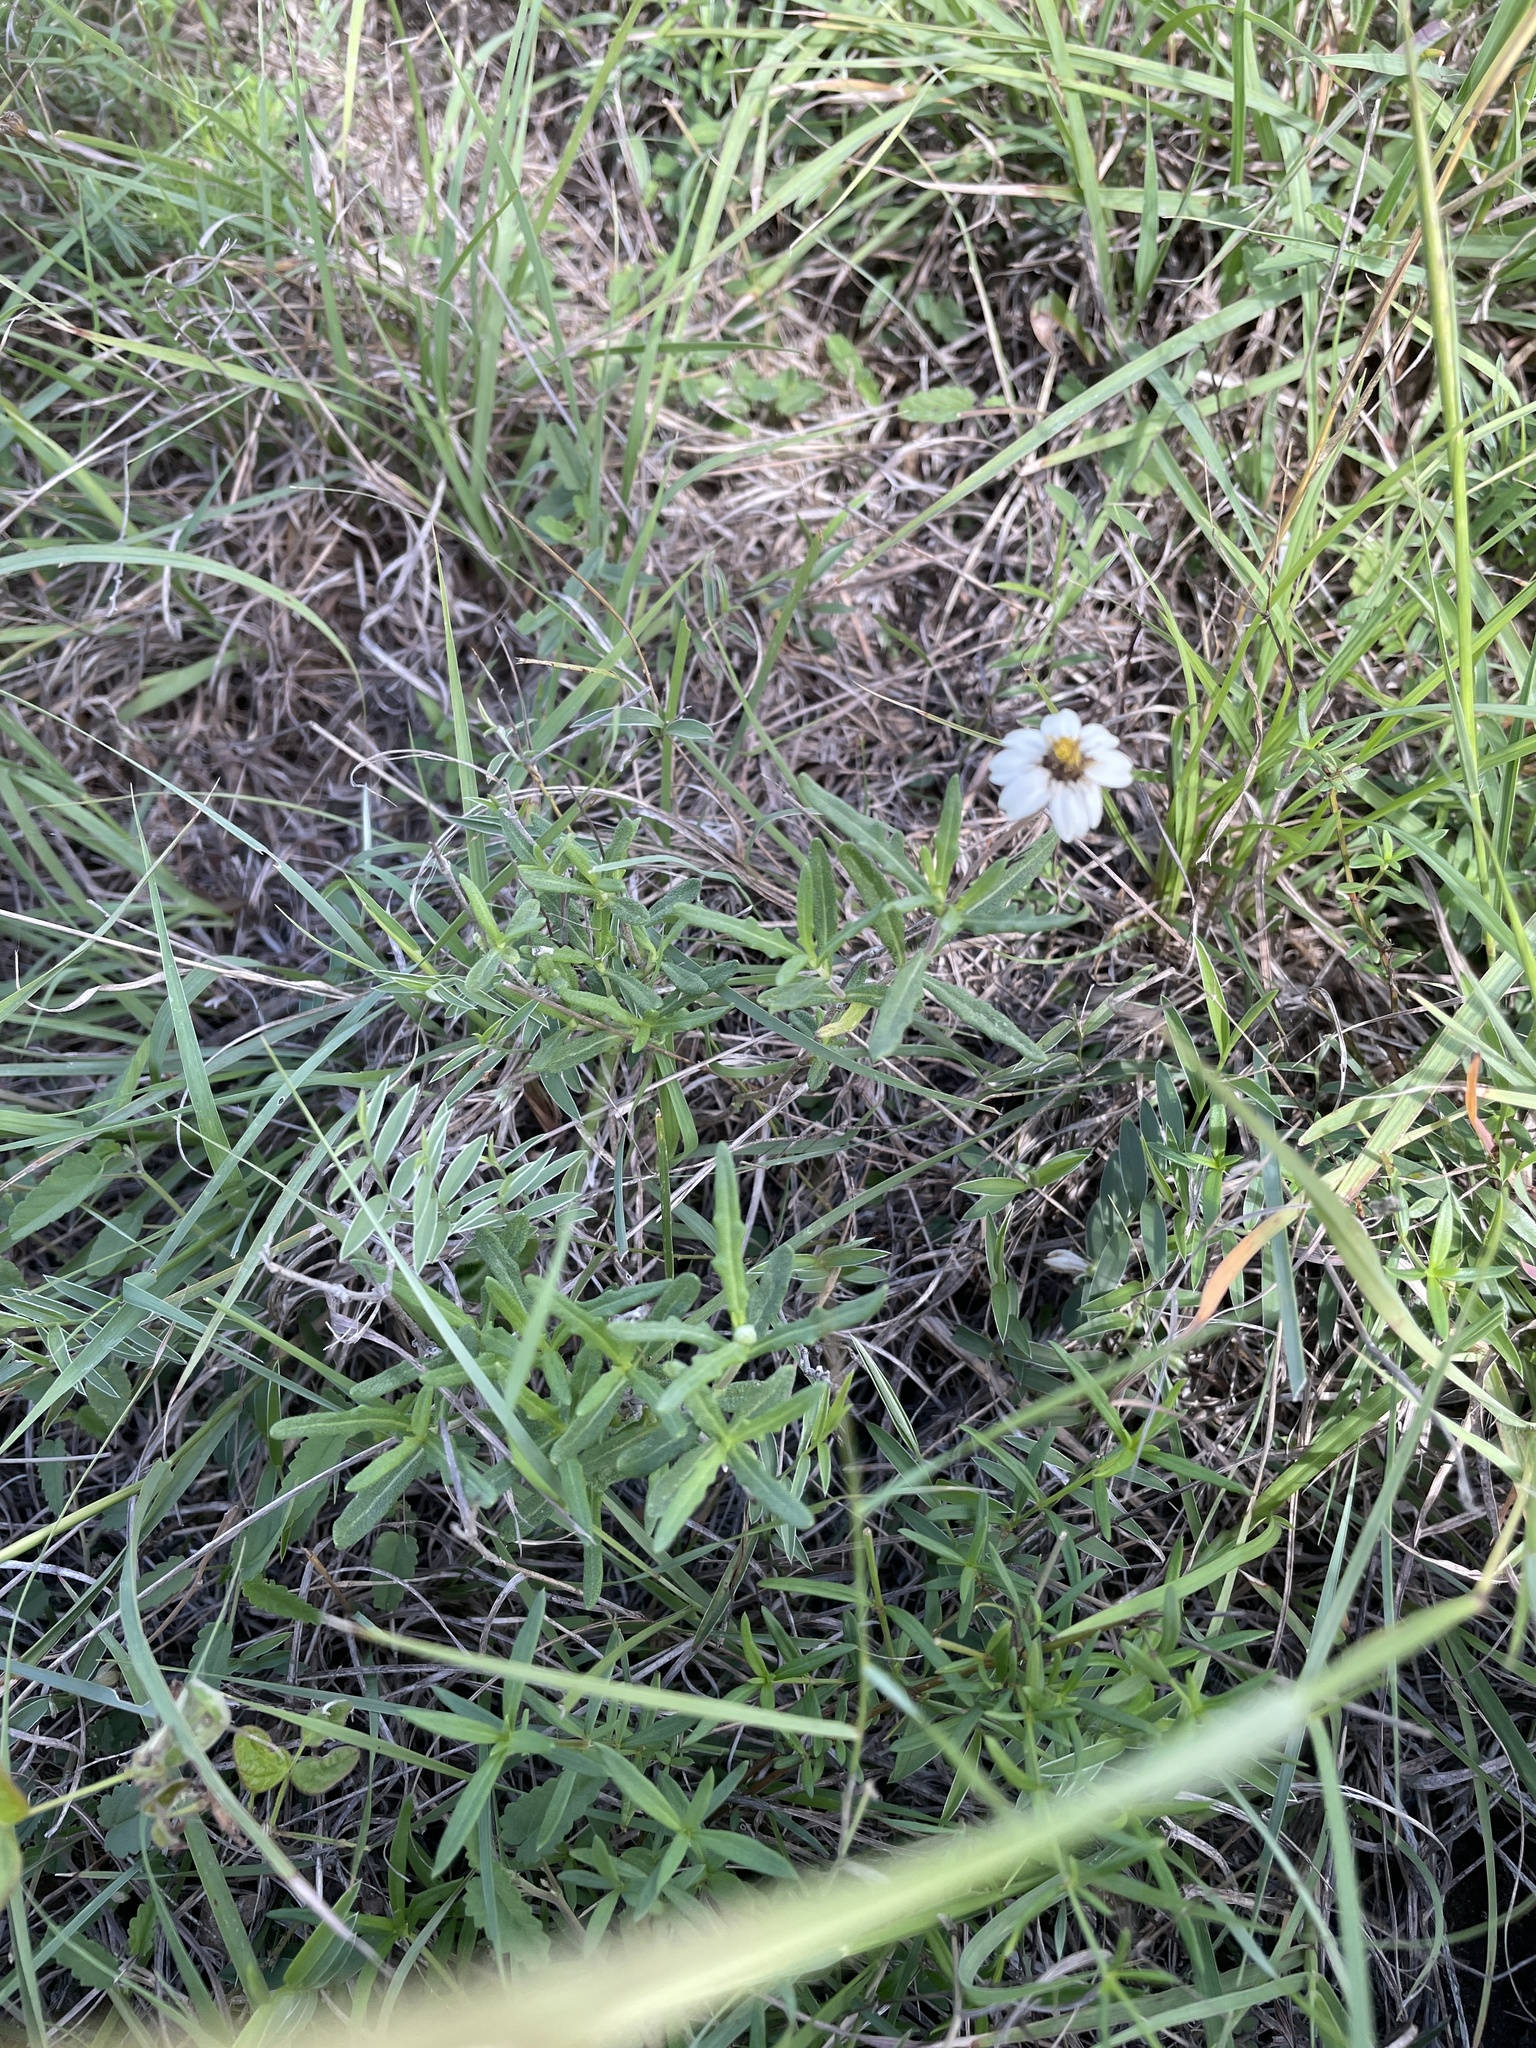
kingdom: Plantae
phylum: Tracheophyta
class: Magnoliopsida
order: Asterales
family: Asteraceae
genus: Melampodium
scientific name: Melampodium cinereum
